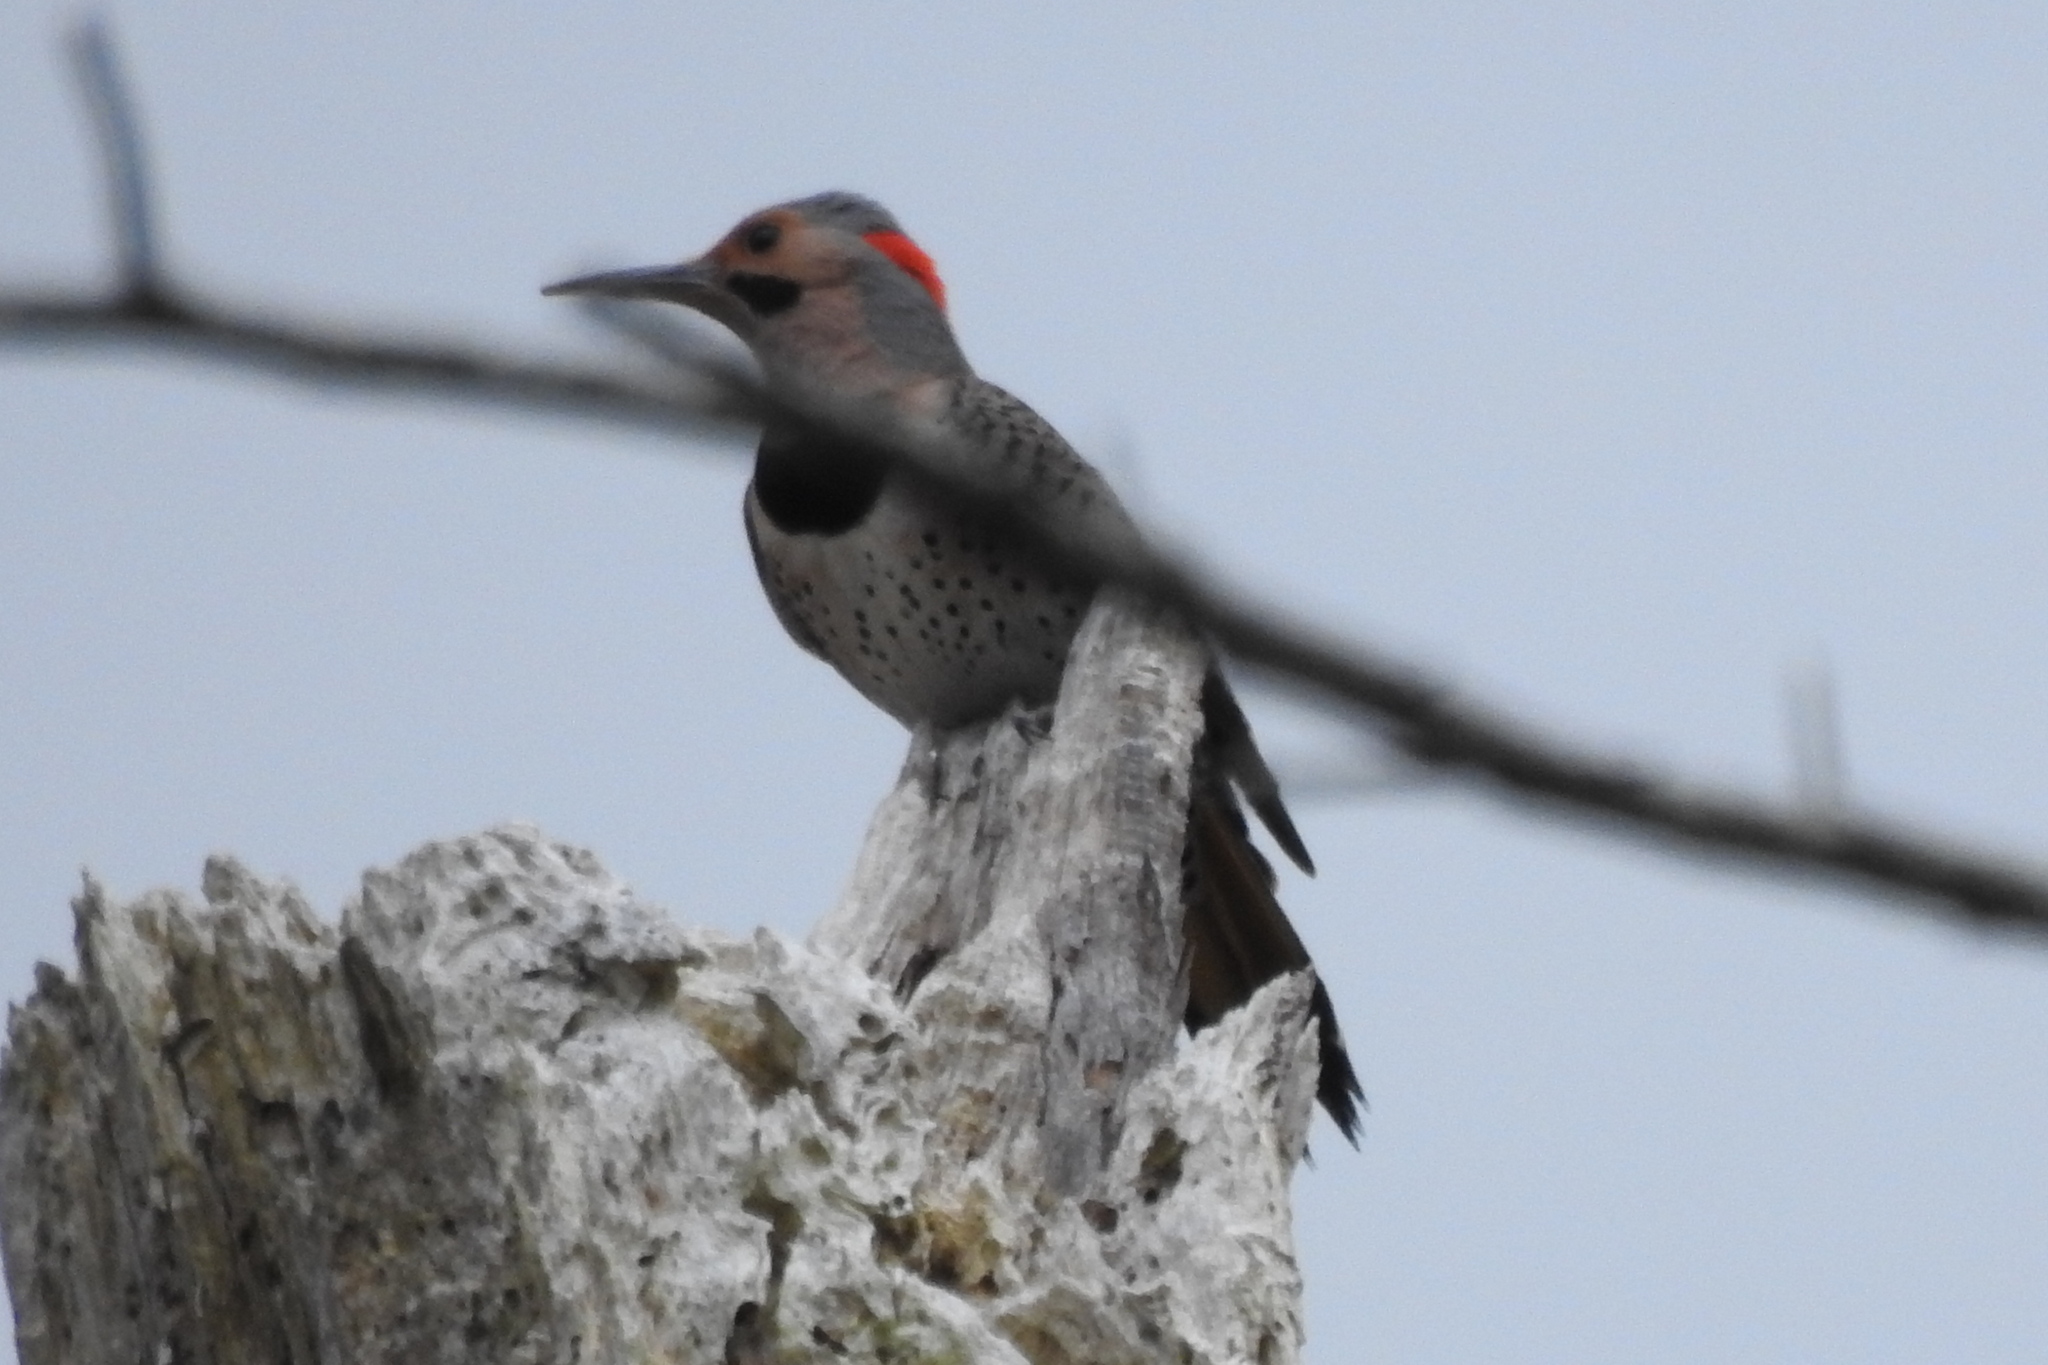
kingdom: Animalia
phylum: Chordata
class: Aves
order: Piciformes
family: Picidae
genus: Colaptes
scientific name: Colaptes auratus
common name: Northern flicker
